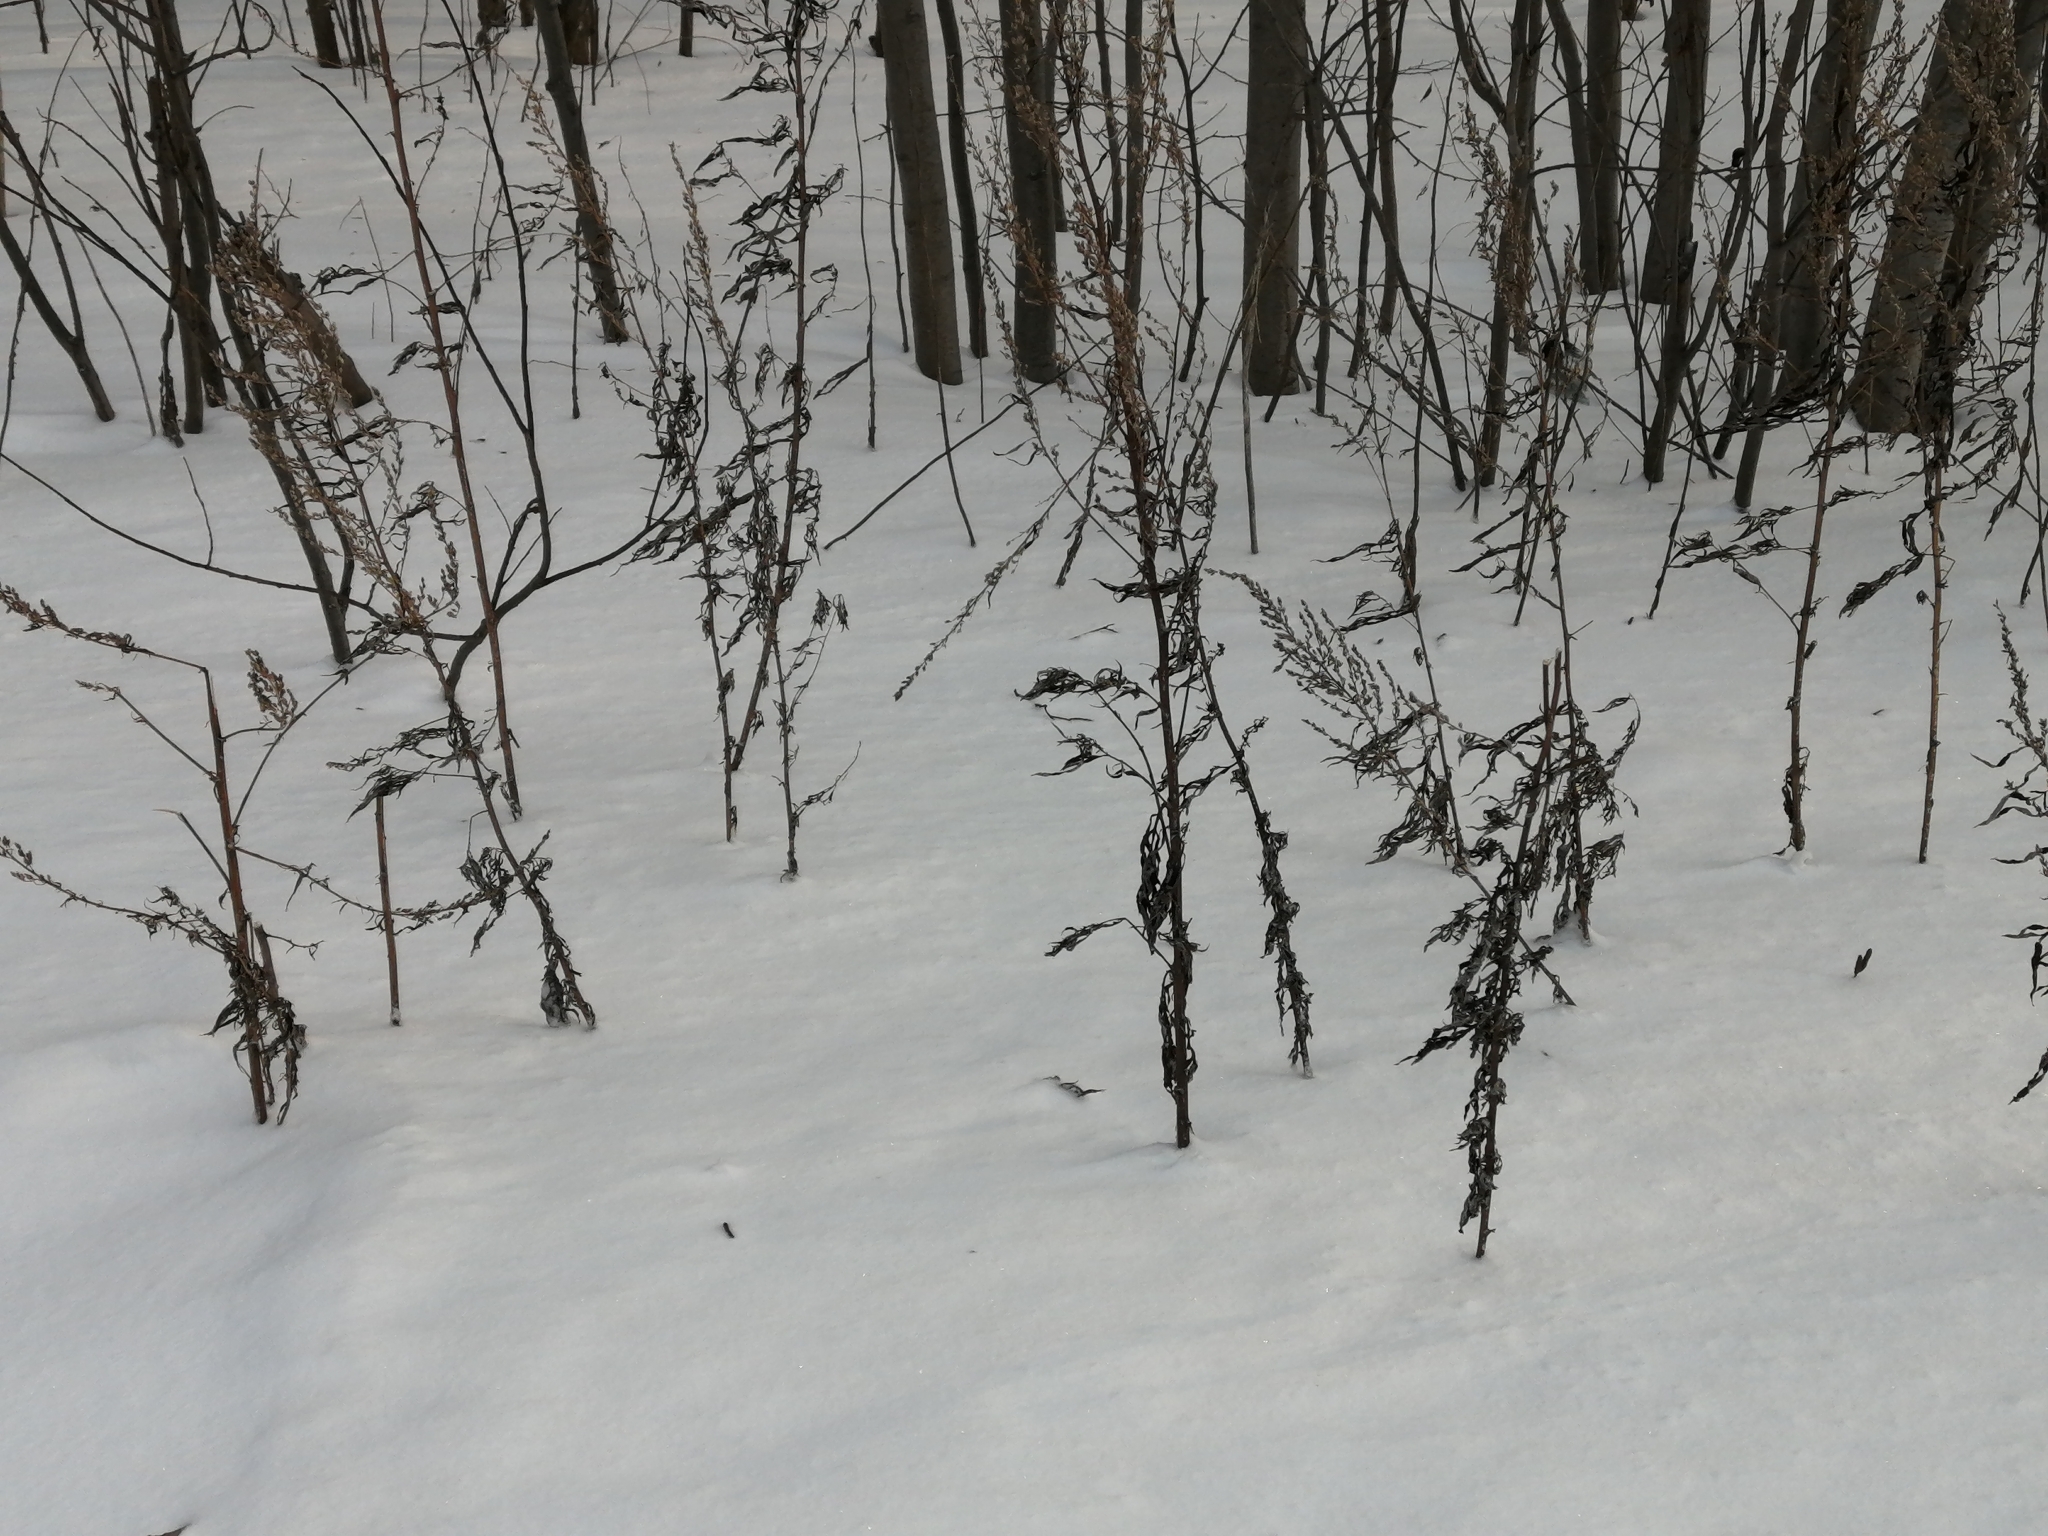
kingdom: Plantae
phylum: Tracheophyta
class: Magnoliopsida
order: Asterales
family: Asteraceae
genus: Artemisia
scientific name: Artemisia vulgaris
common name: Mugwort
